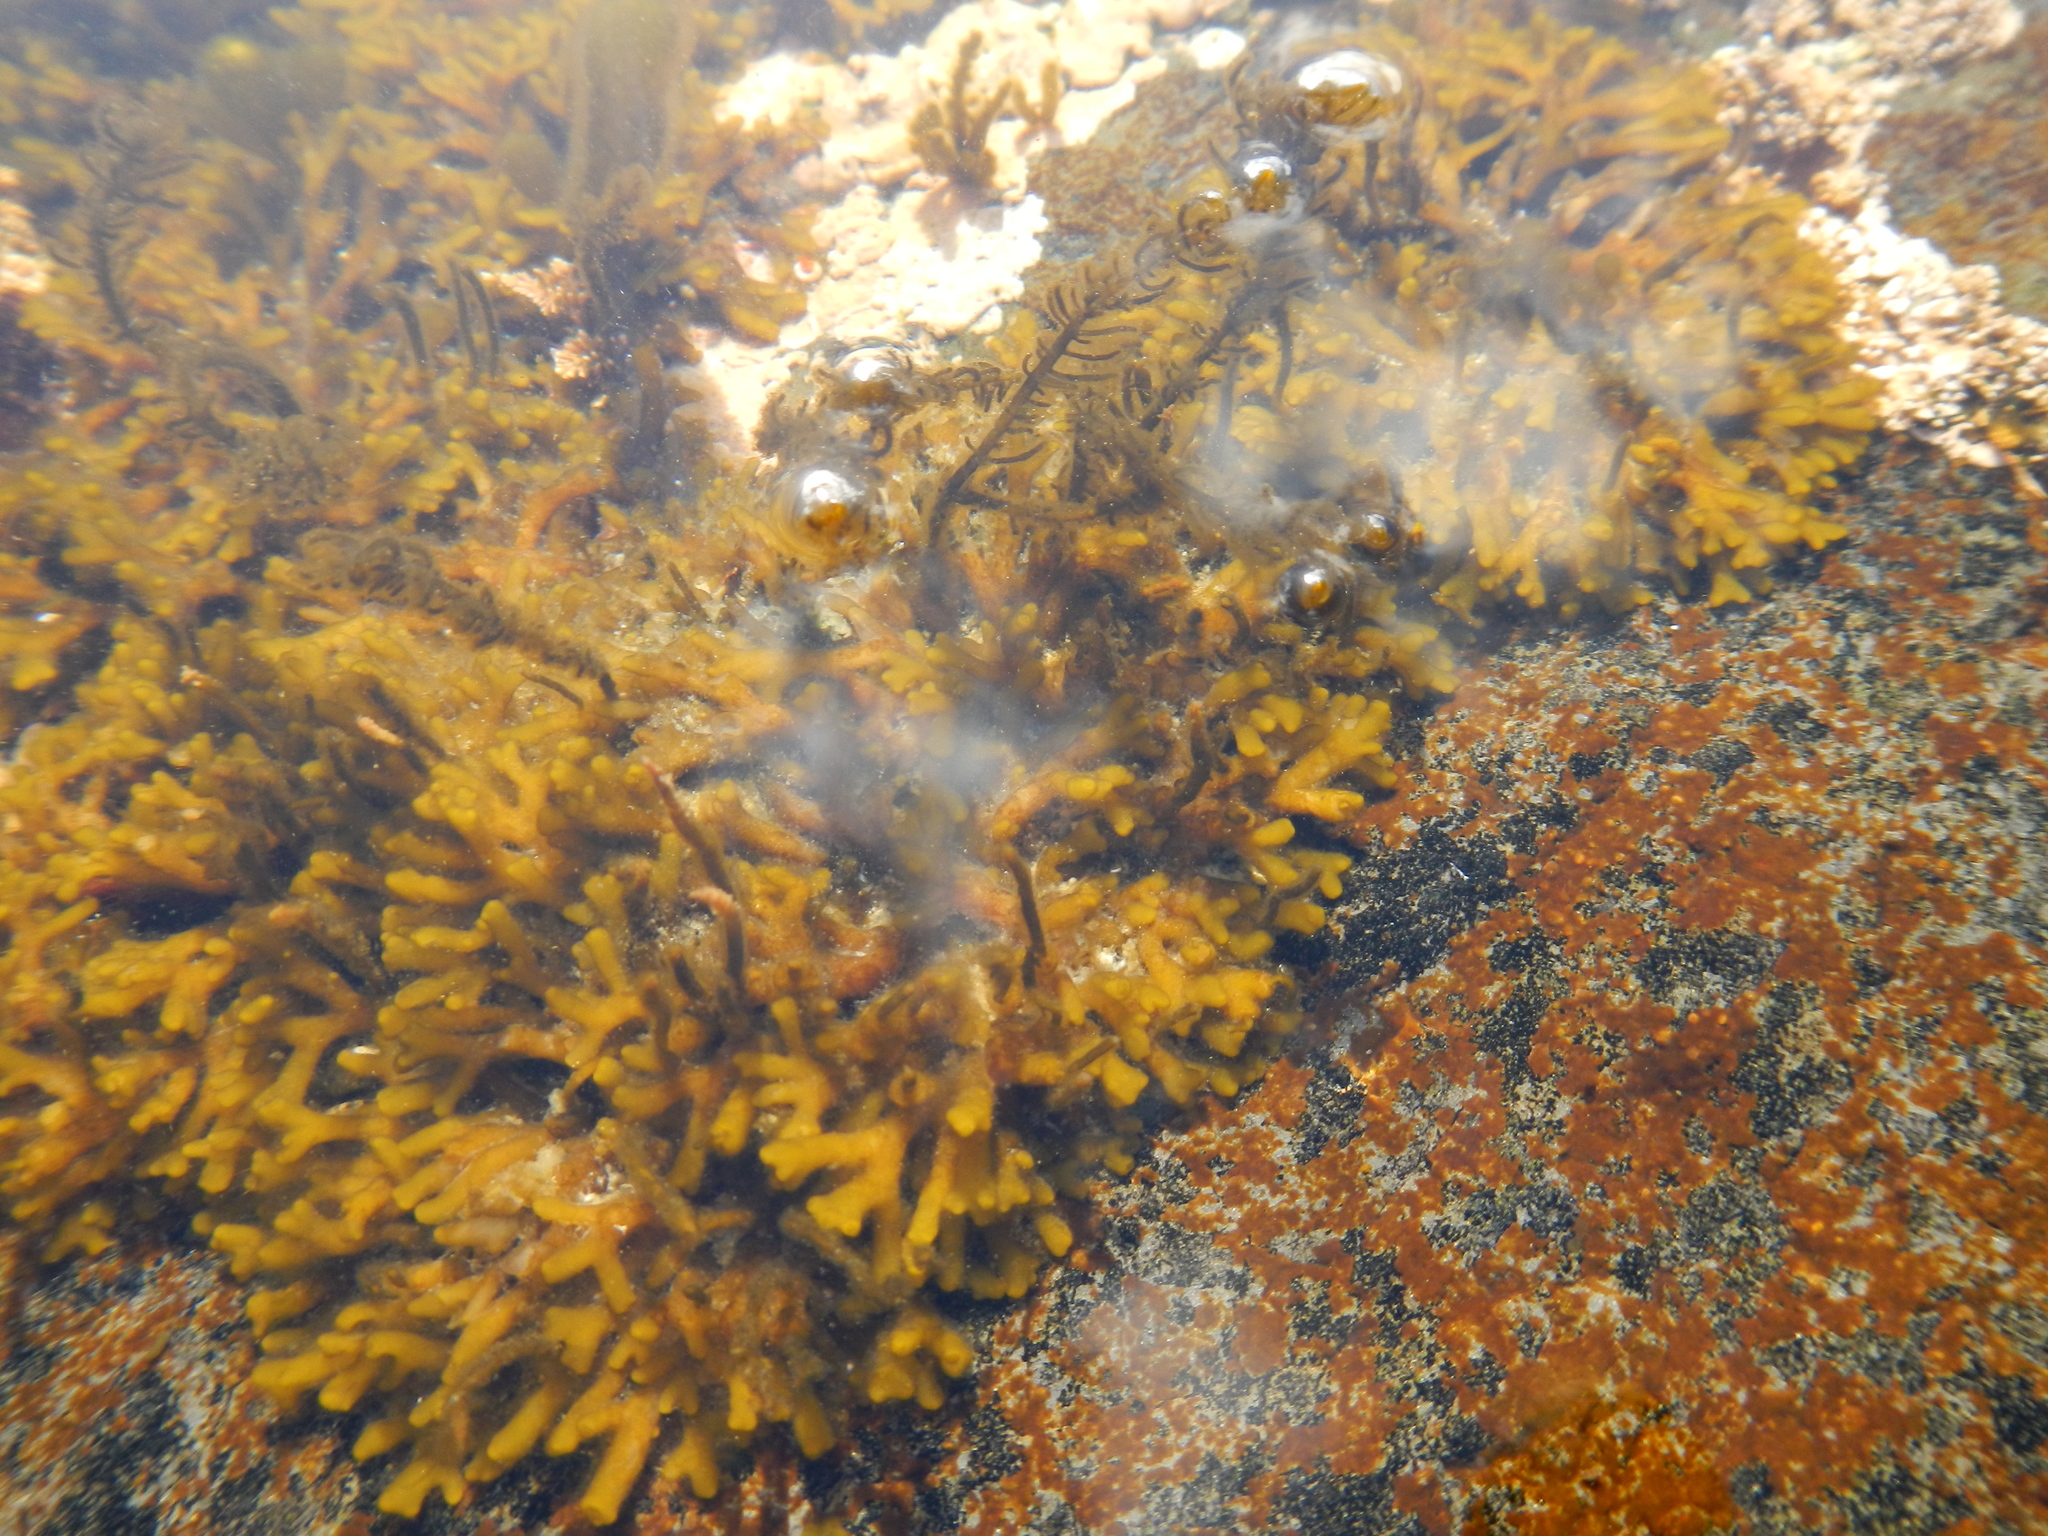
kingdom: Chromista
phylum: Ochrophyta
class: Phaeophyceae
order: Ectocarpales
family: Adenocystaceae
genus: Caepidium
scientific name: Caepidium antarcticum
